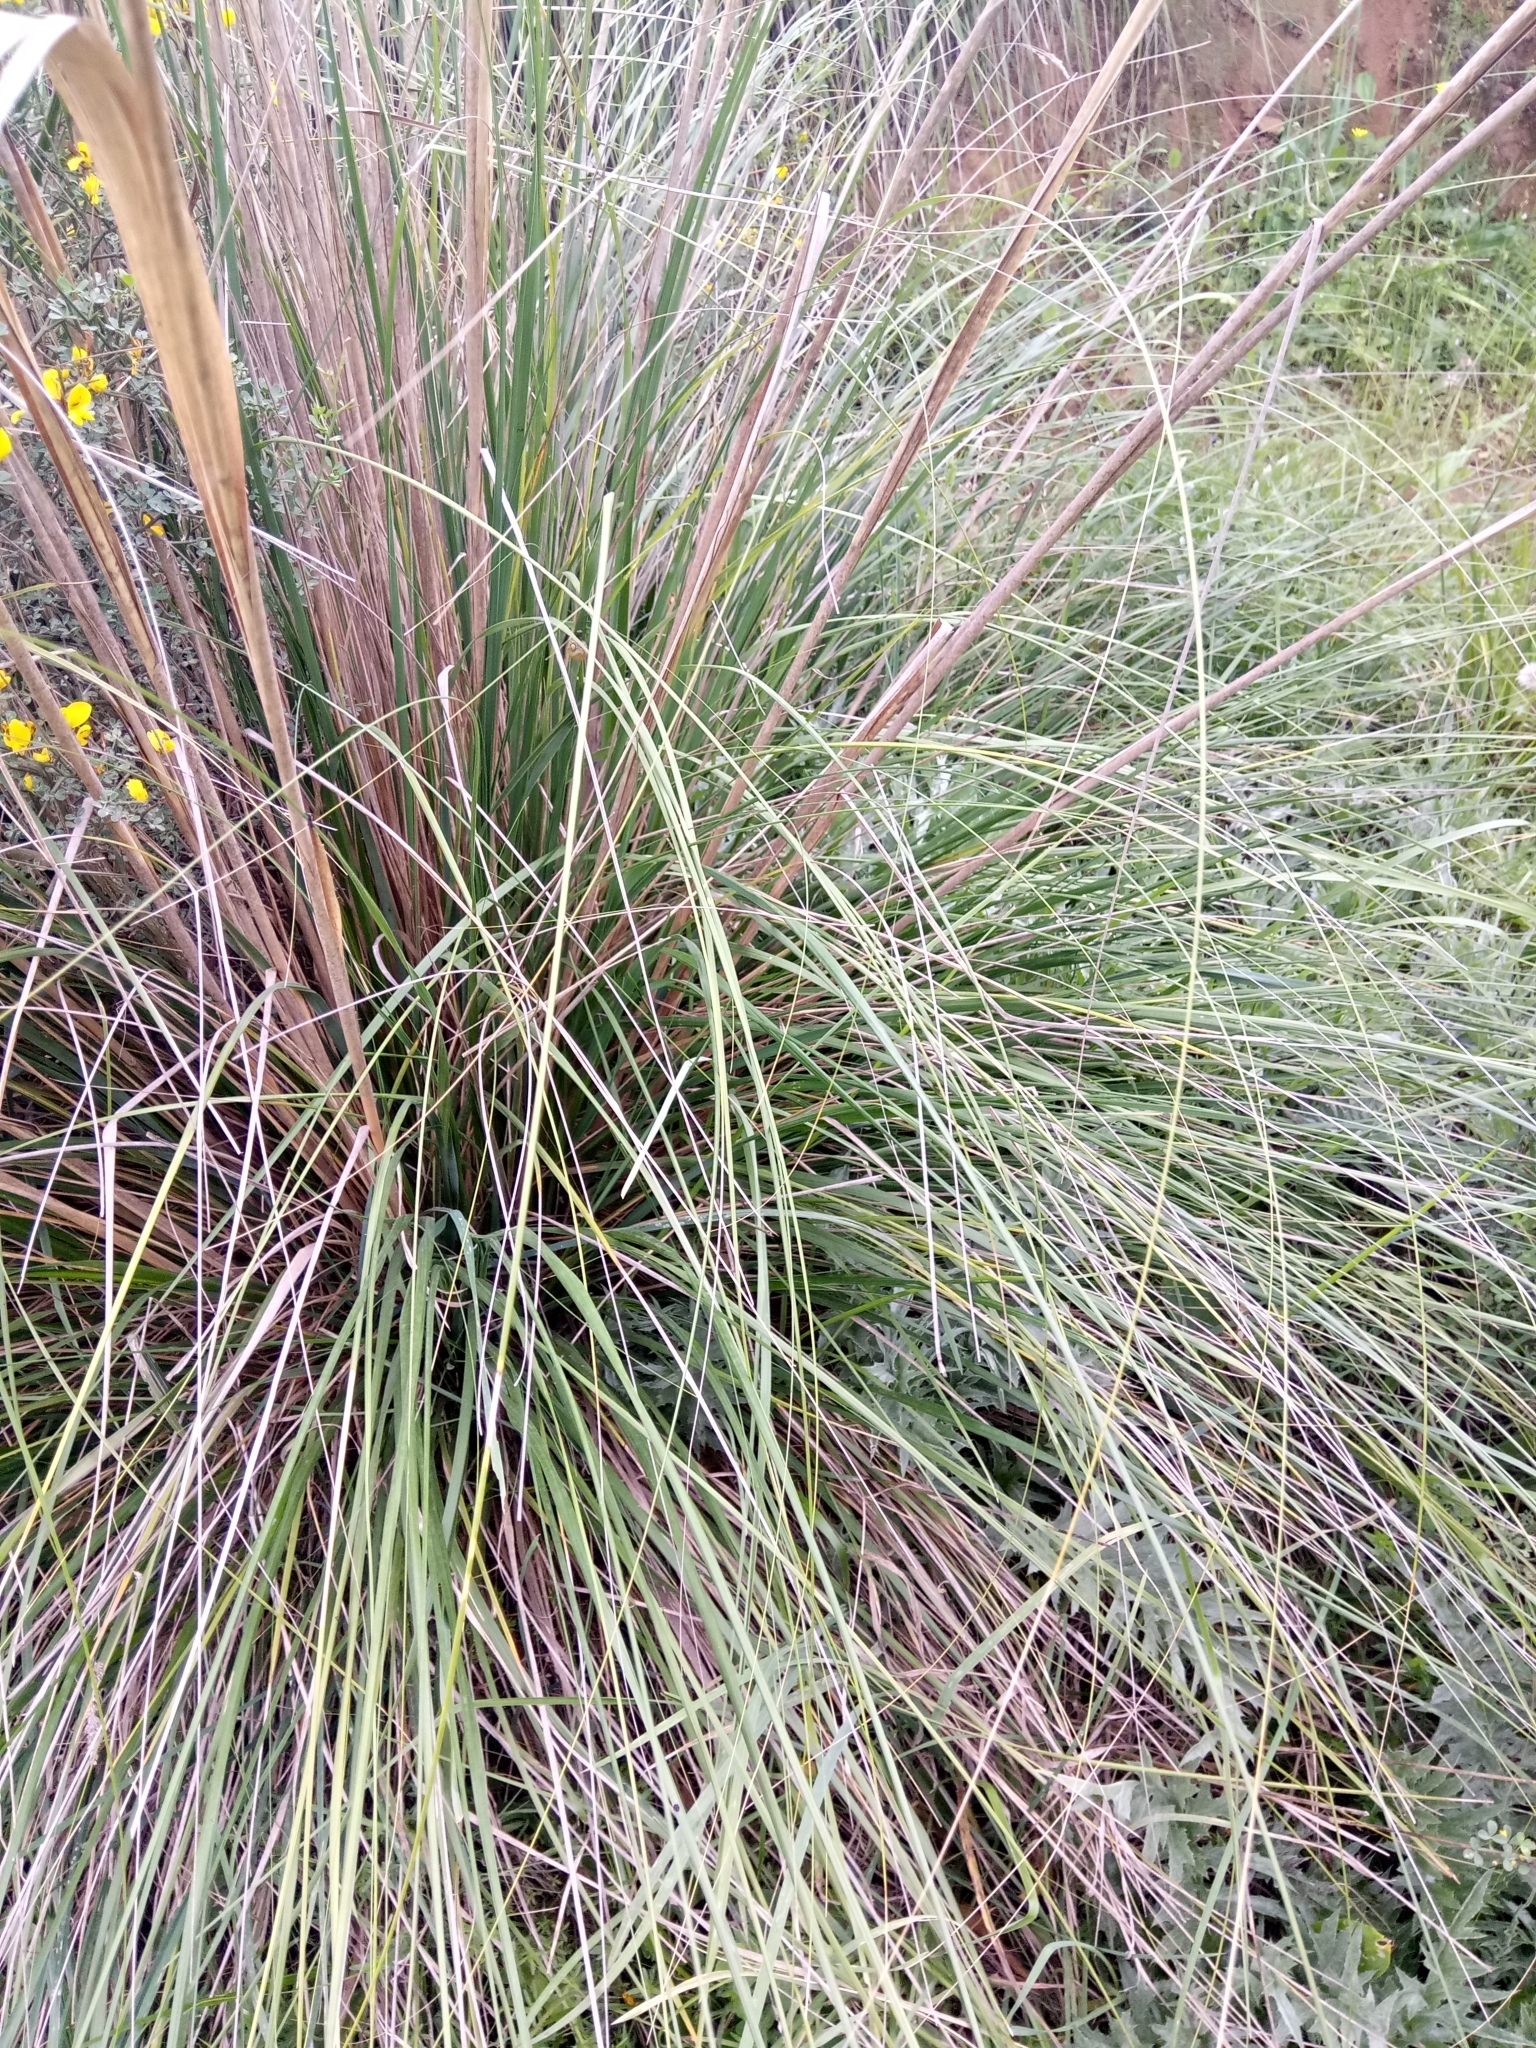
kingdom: Plantae
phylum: Tracheophyta
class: Liliopsida
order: Poales
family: Poaceae
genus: Ampelodesmos
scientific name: Ampelodesmos mauritanicus
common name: Mauritanian grass
